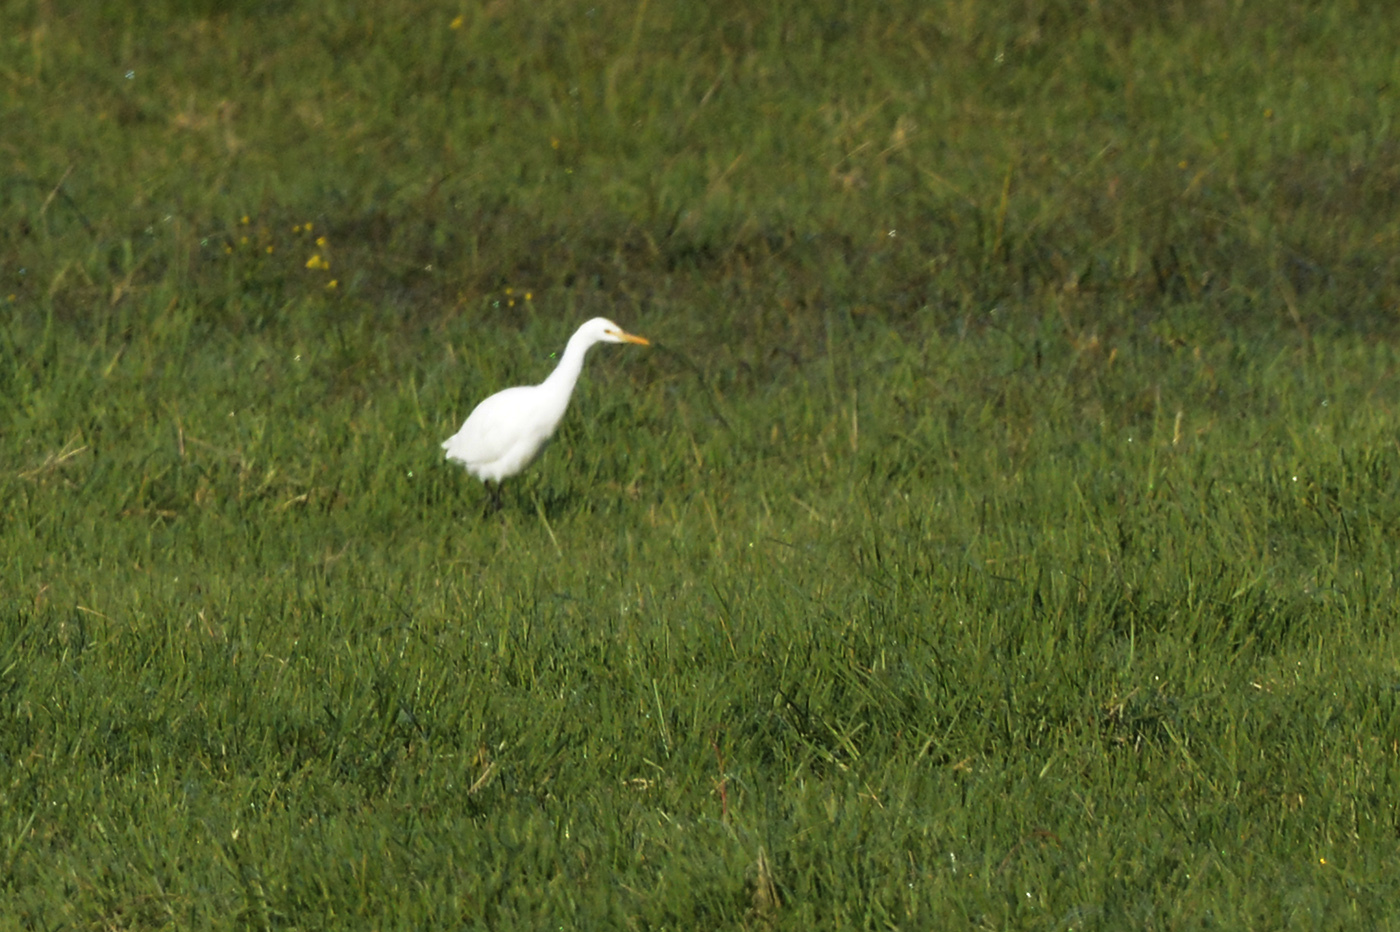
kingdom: Animalia
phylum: Chordata
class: Aves
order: Pelecaniformes
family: Ardeidae
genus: Bubulcus
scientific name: Bubulcus coromandus
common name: Eastern cattle egret
